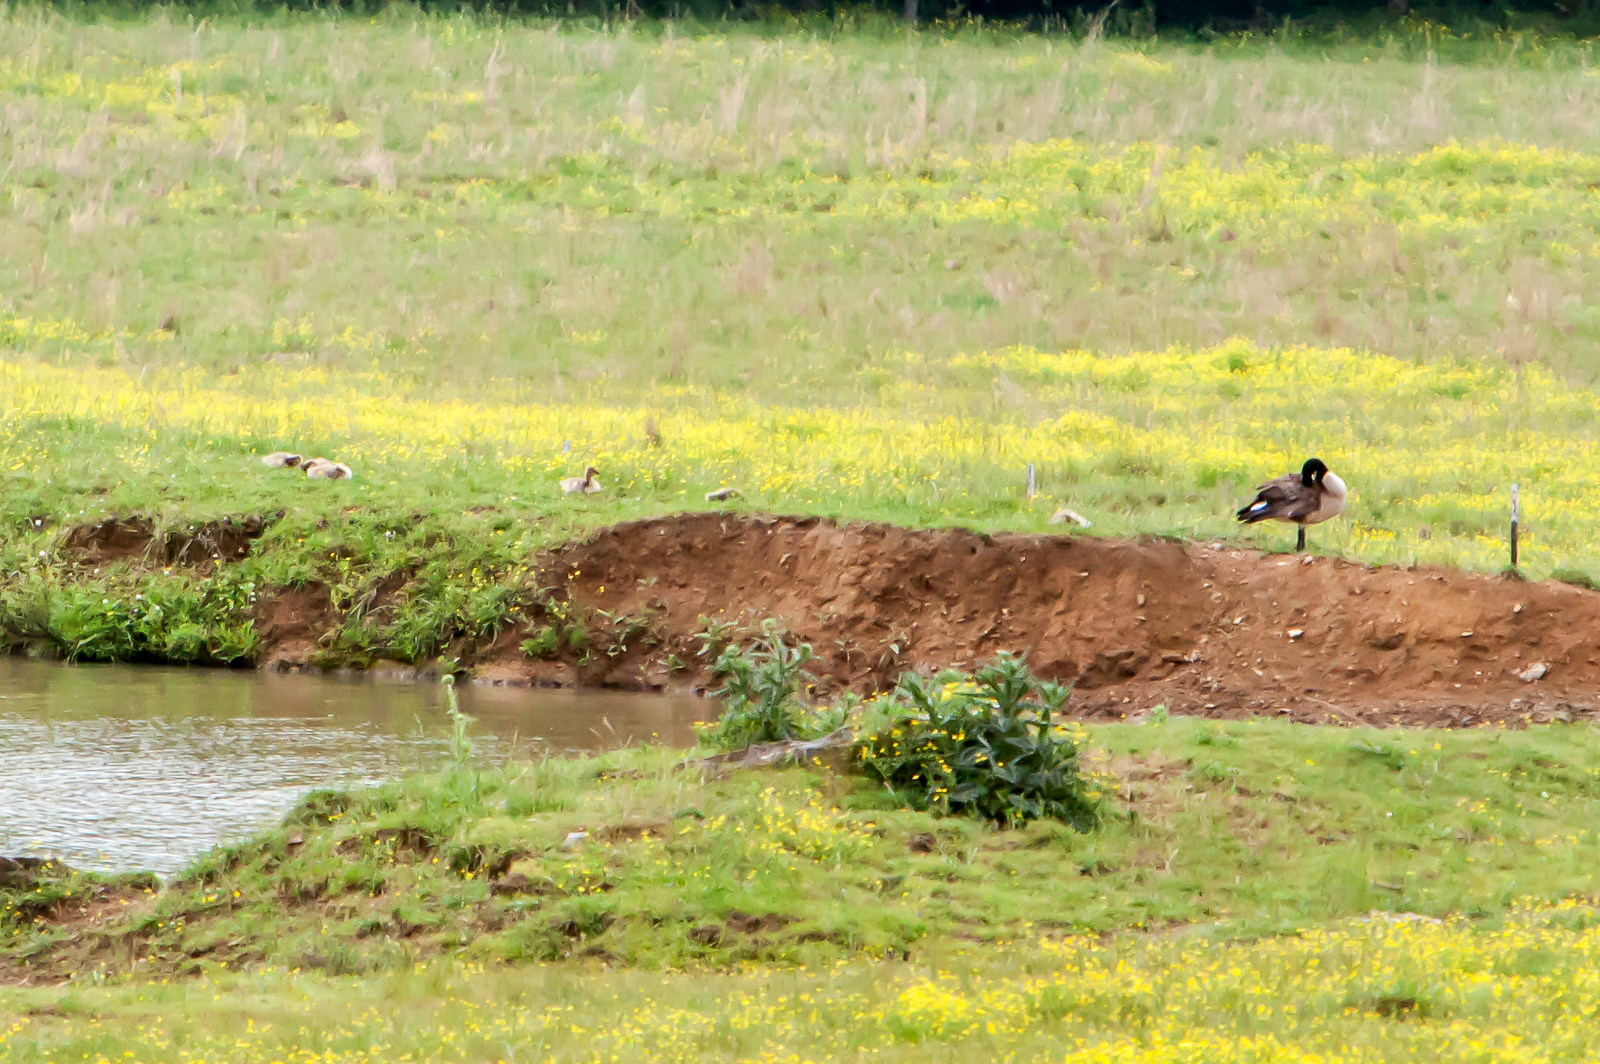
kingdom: Animalia
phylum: Chordata
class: Aves
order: Anseriformes
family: Anatidae
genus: Branta
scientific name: Branta canadensis
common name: Canada goose
